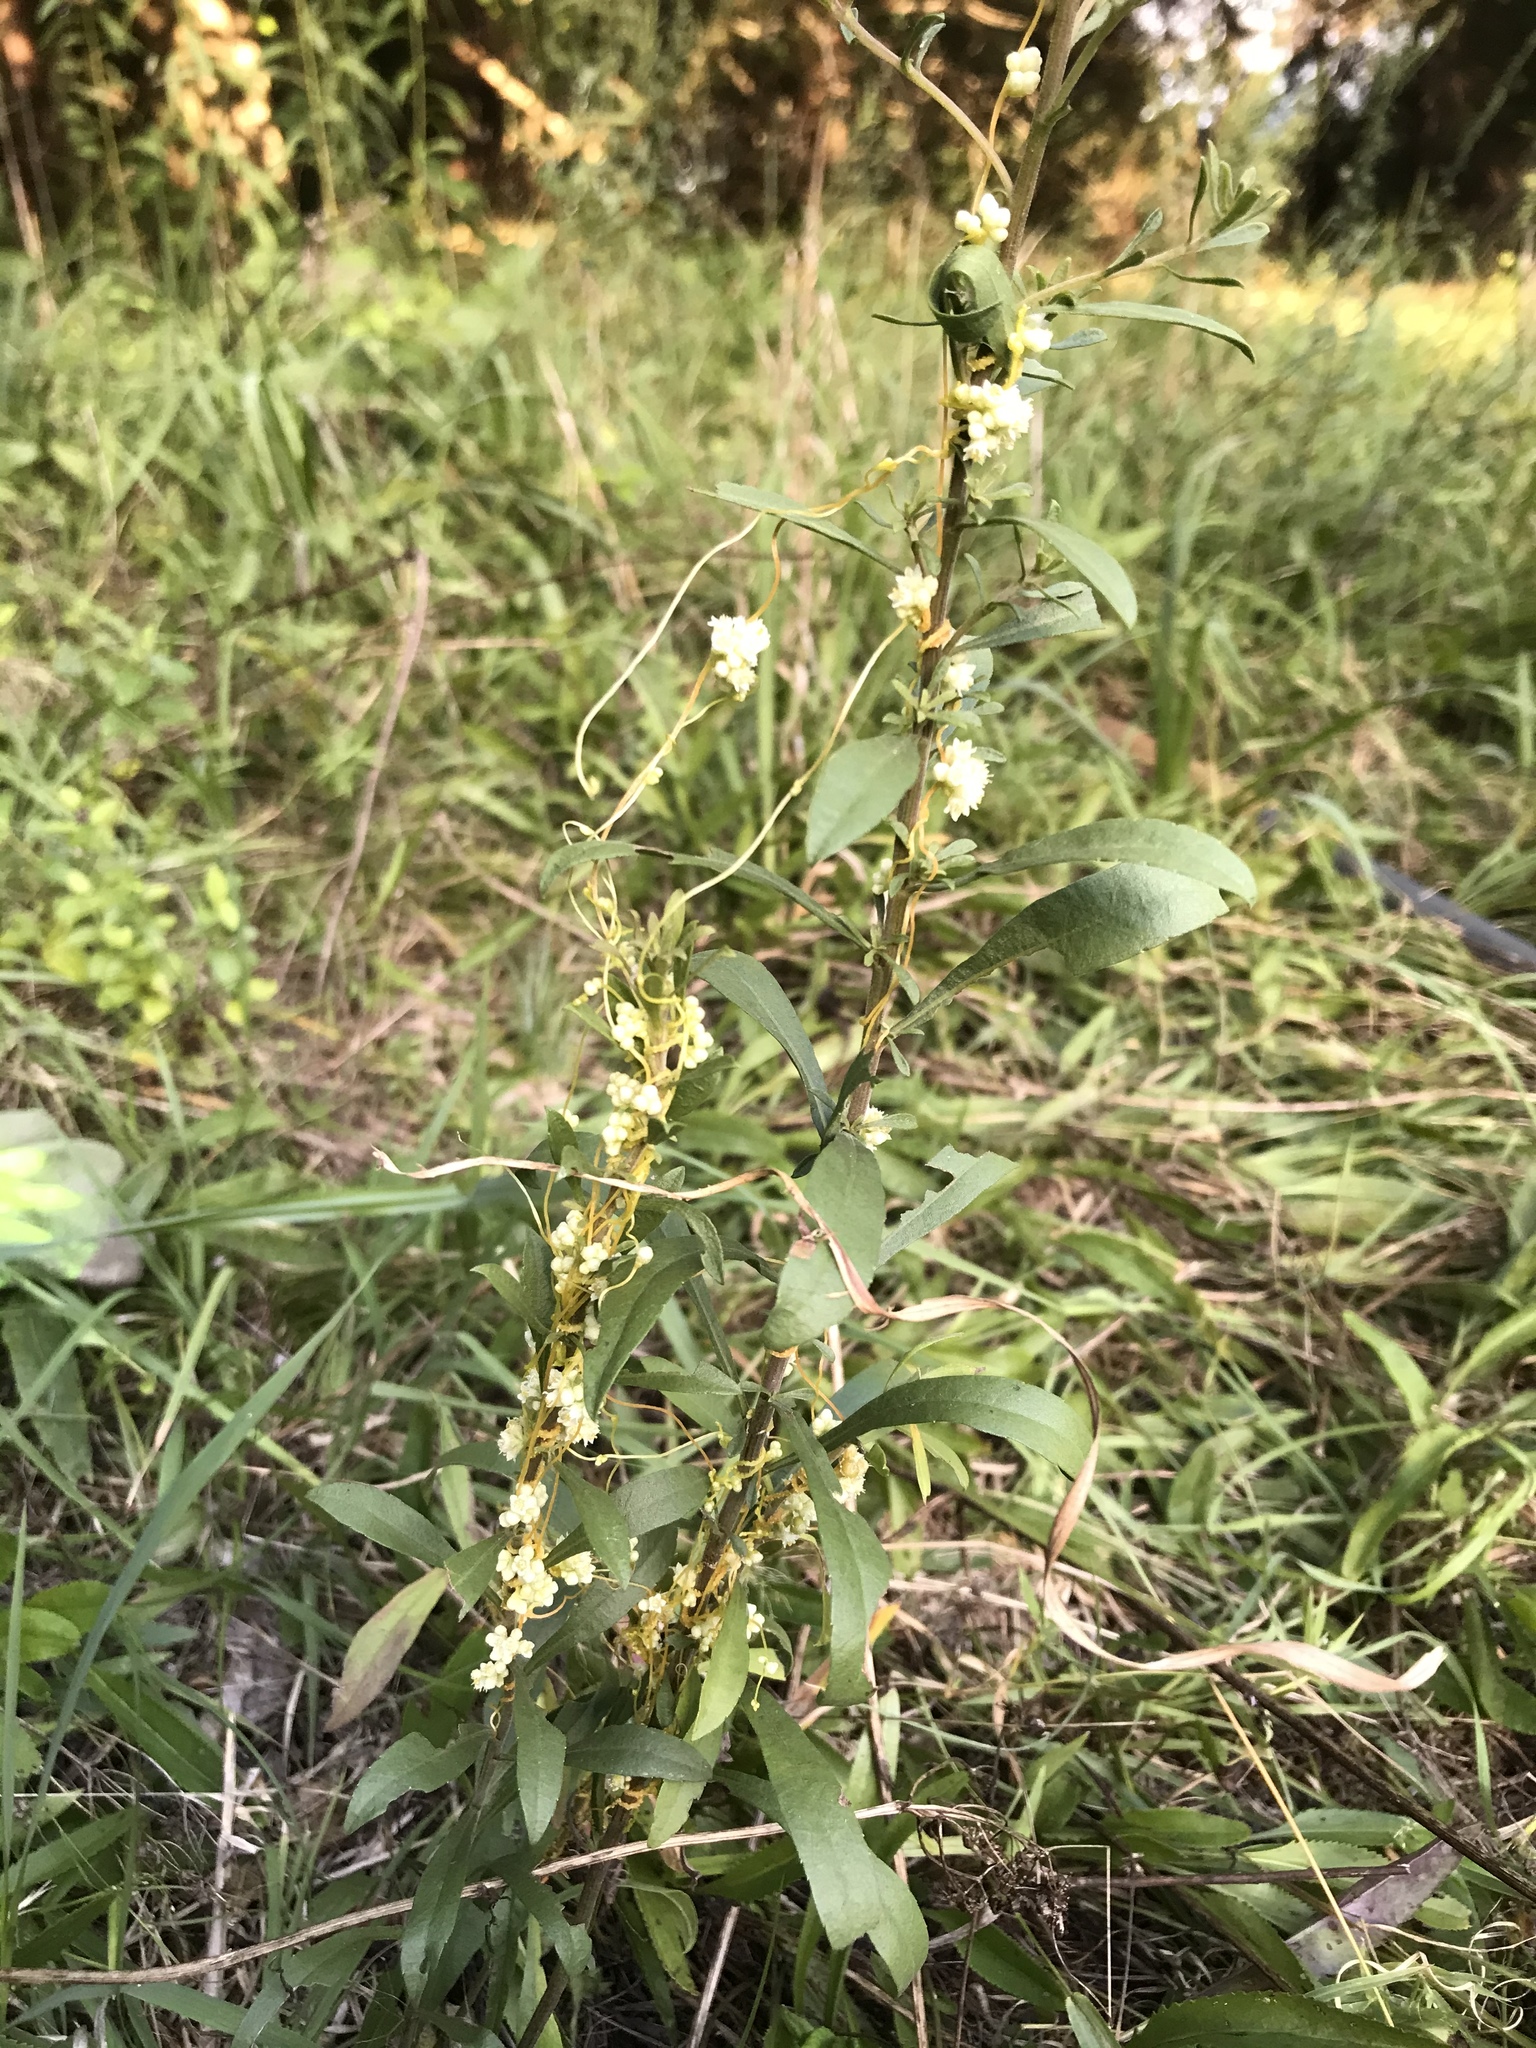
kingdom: Plantae
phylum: Tracheophyta
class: Magnoliopsida
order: Solanales
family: Convolvulaceae
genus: Cuscuta
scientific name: Cuscuta rostrata
